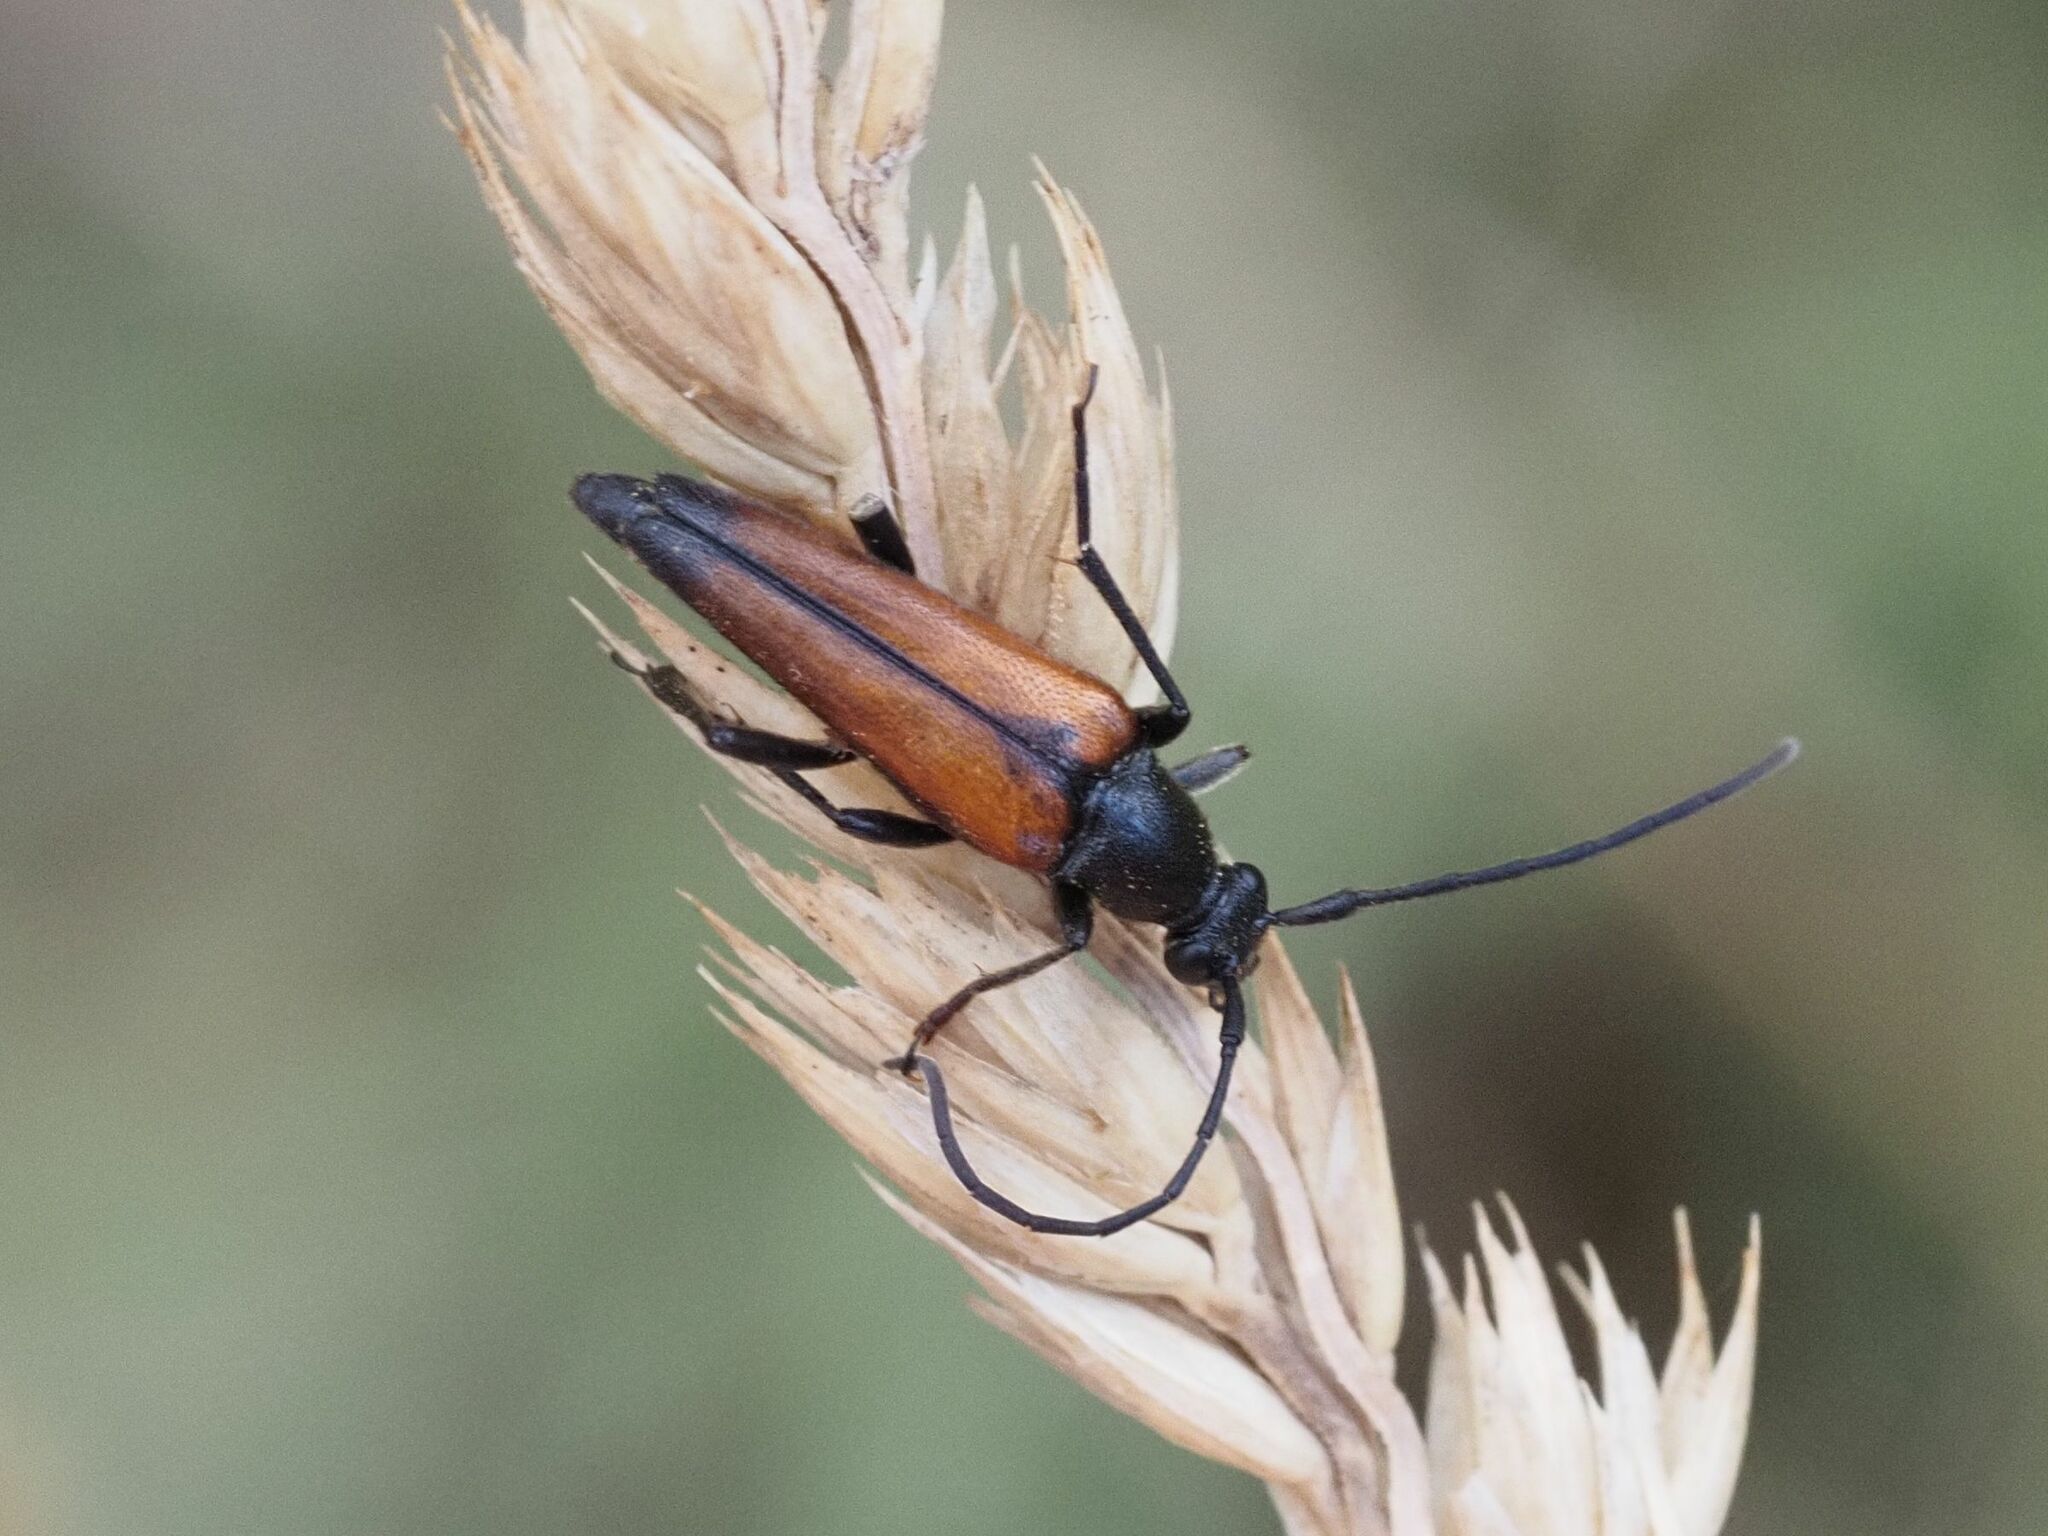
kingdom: Animalia
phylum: Arthropoda
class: Insecta
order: Coleoptera
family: Cerambycidae
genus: Stenurella
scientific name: Stenurella melanura
